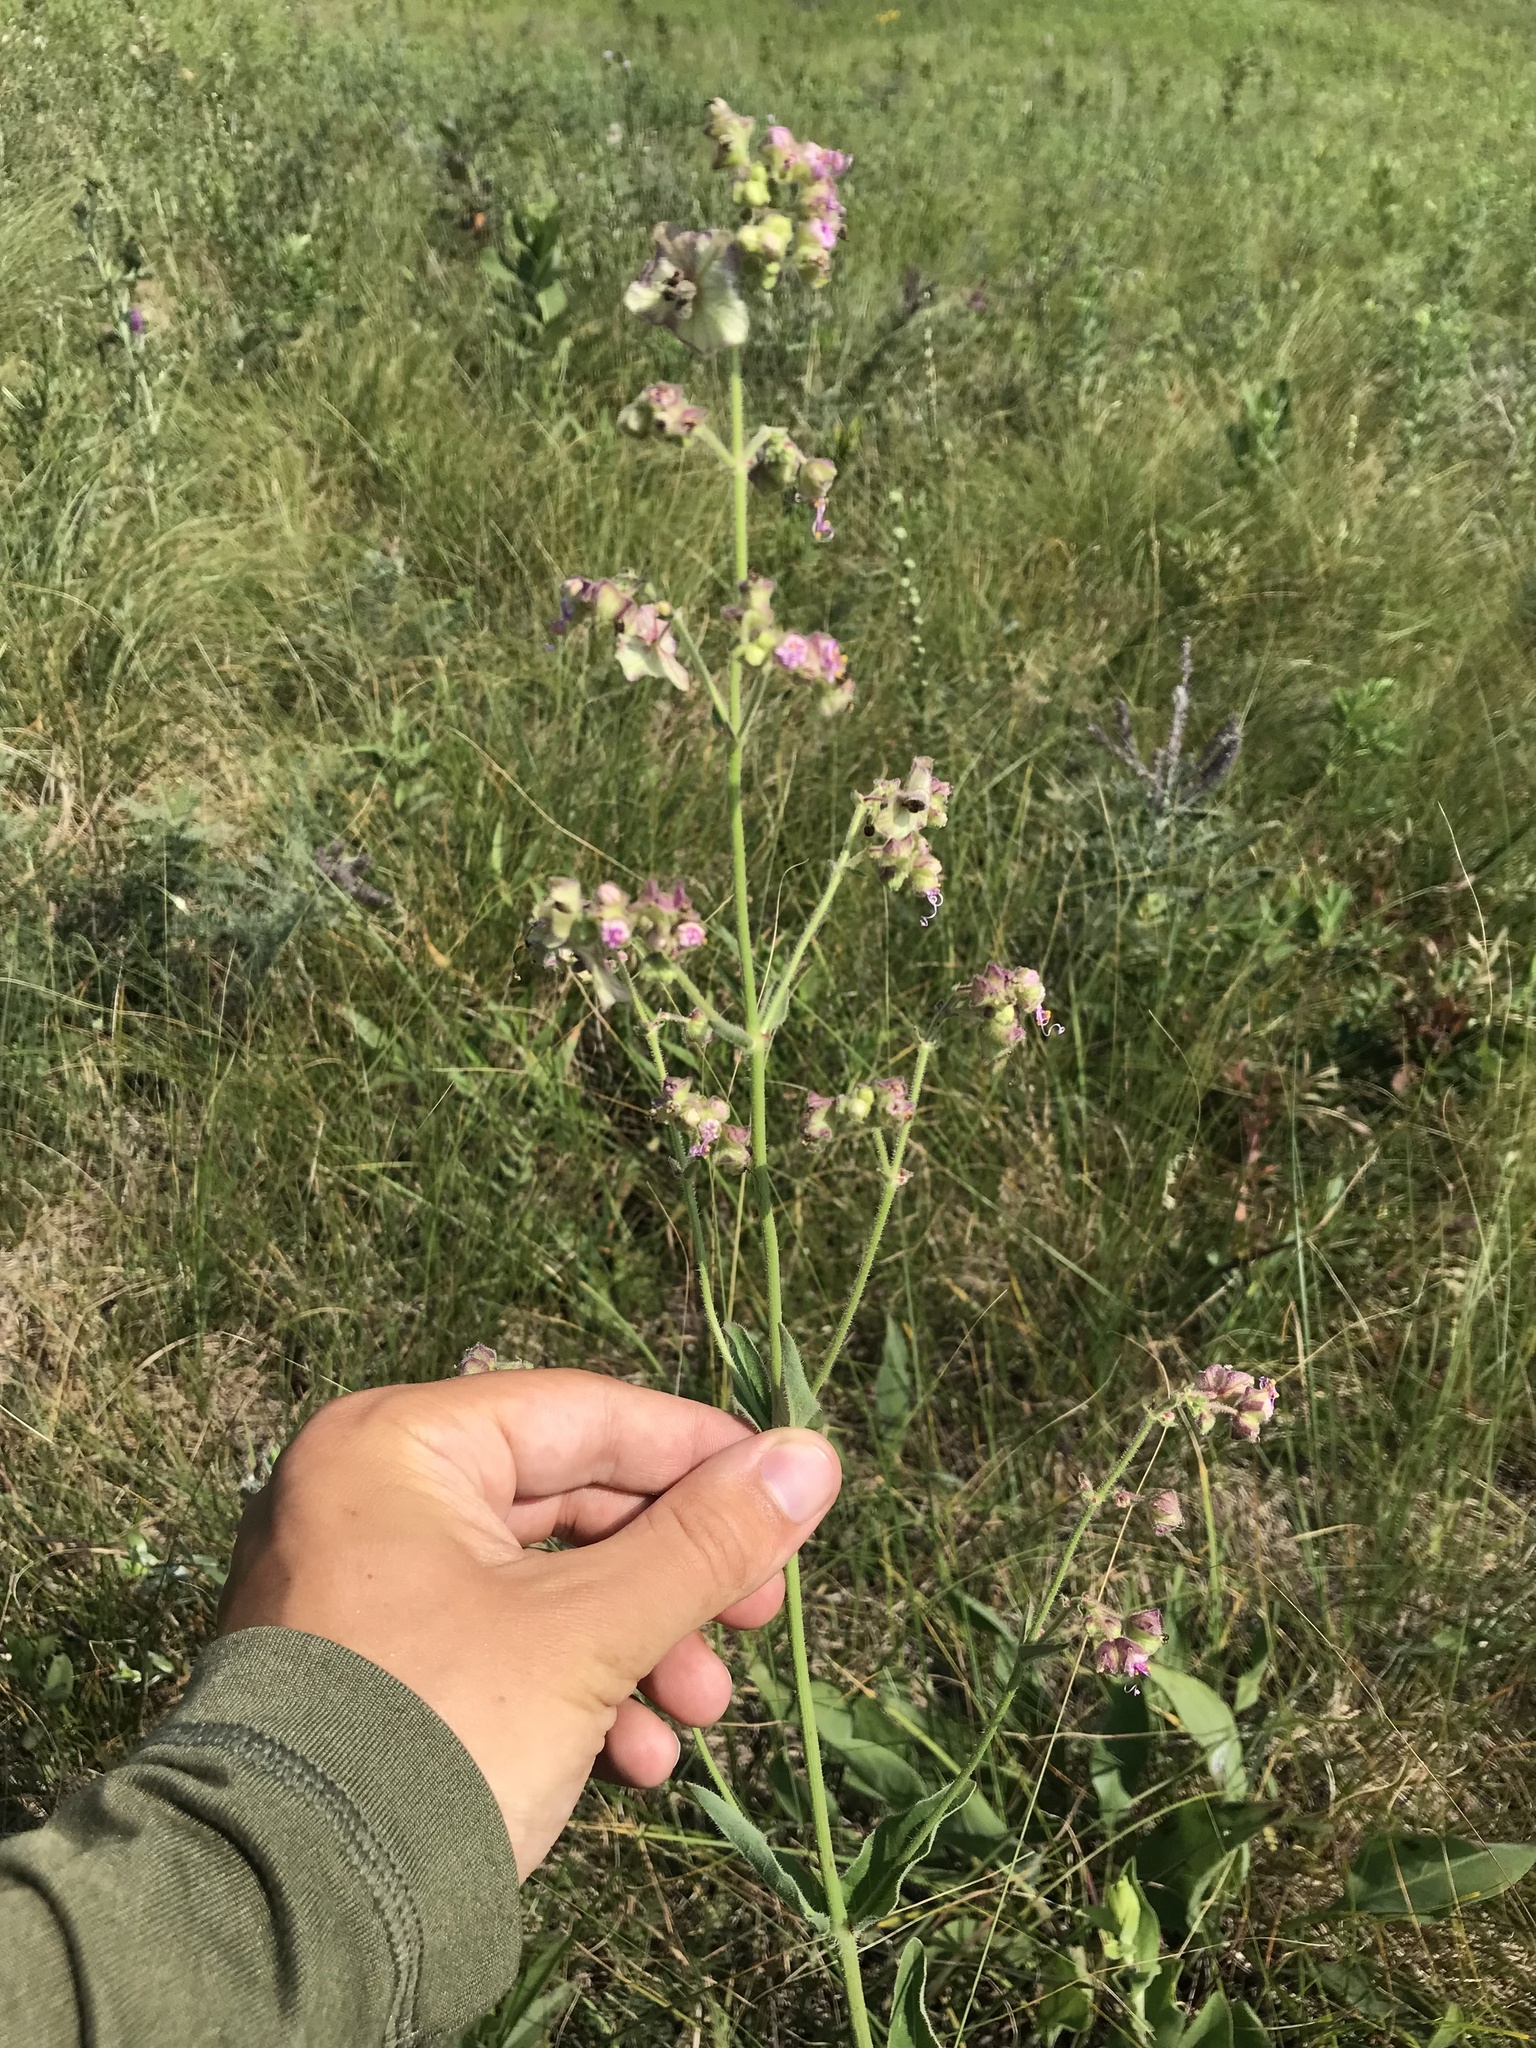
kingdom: Plantae
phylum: Tracheophyta
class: Magnoliopsida
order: Caryophyllales
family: Nyctaginaceae
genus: Mirabilis
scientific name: Mirabilis albida
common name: Hairy four-o'clock
